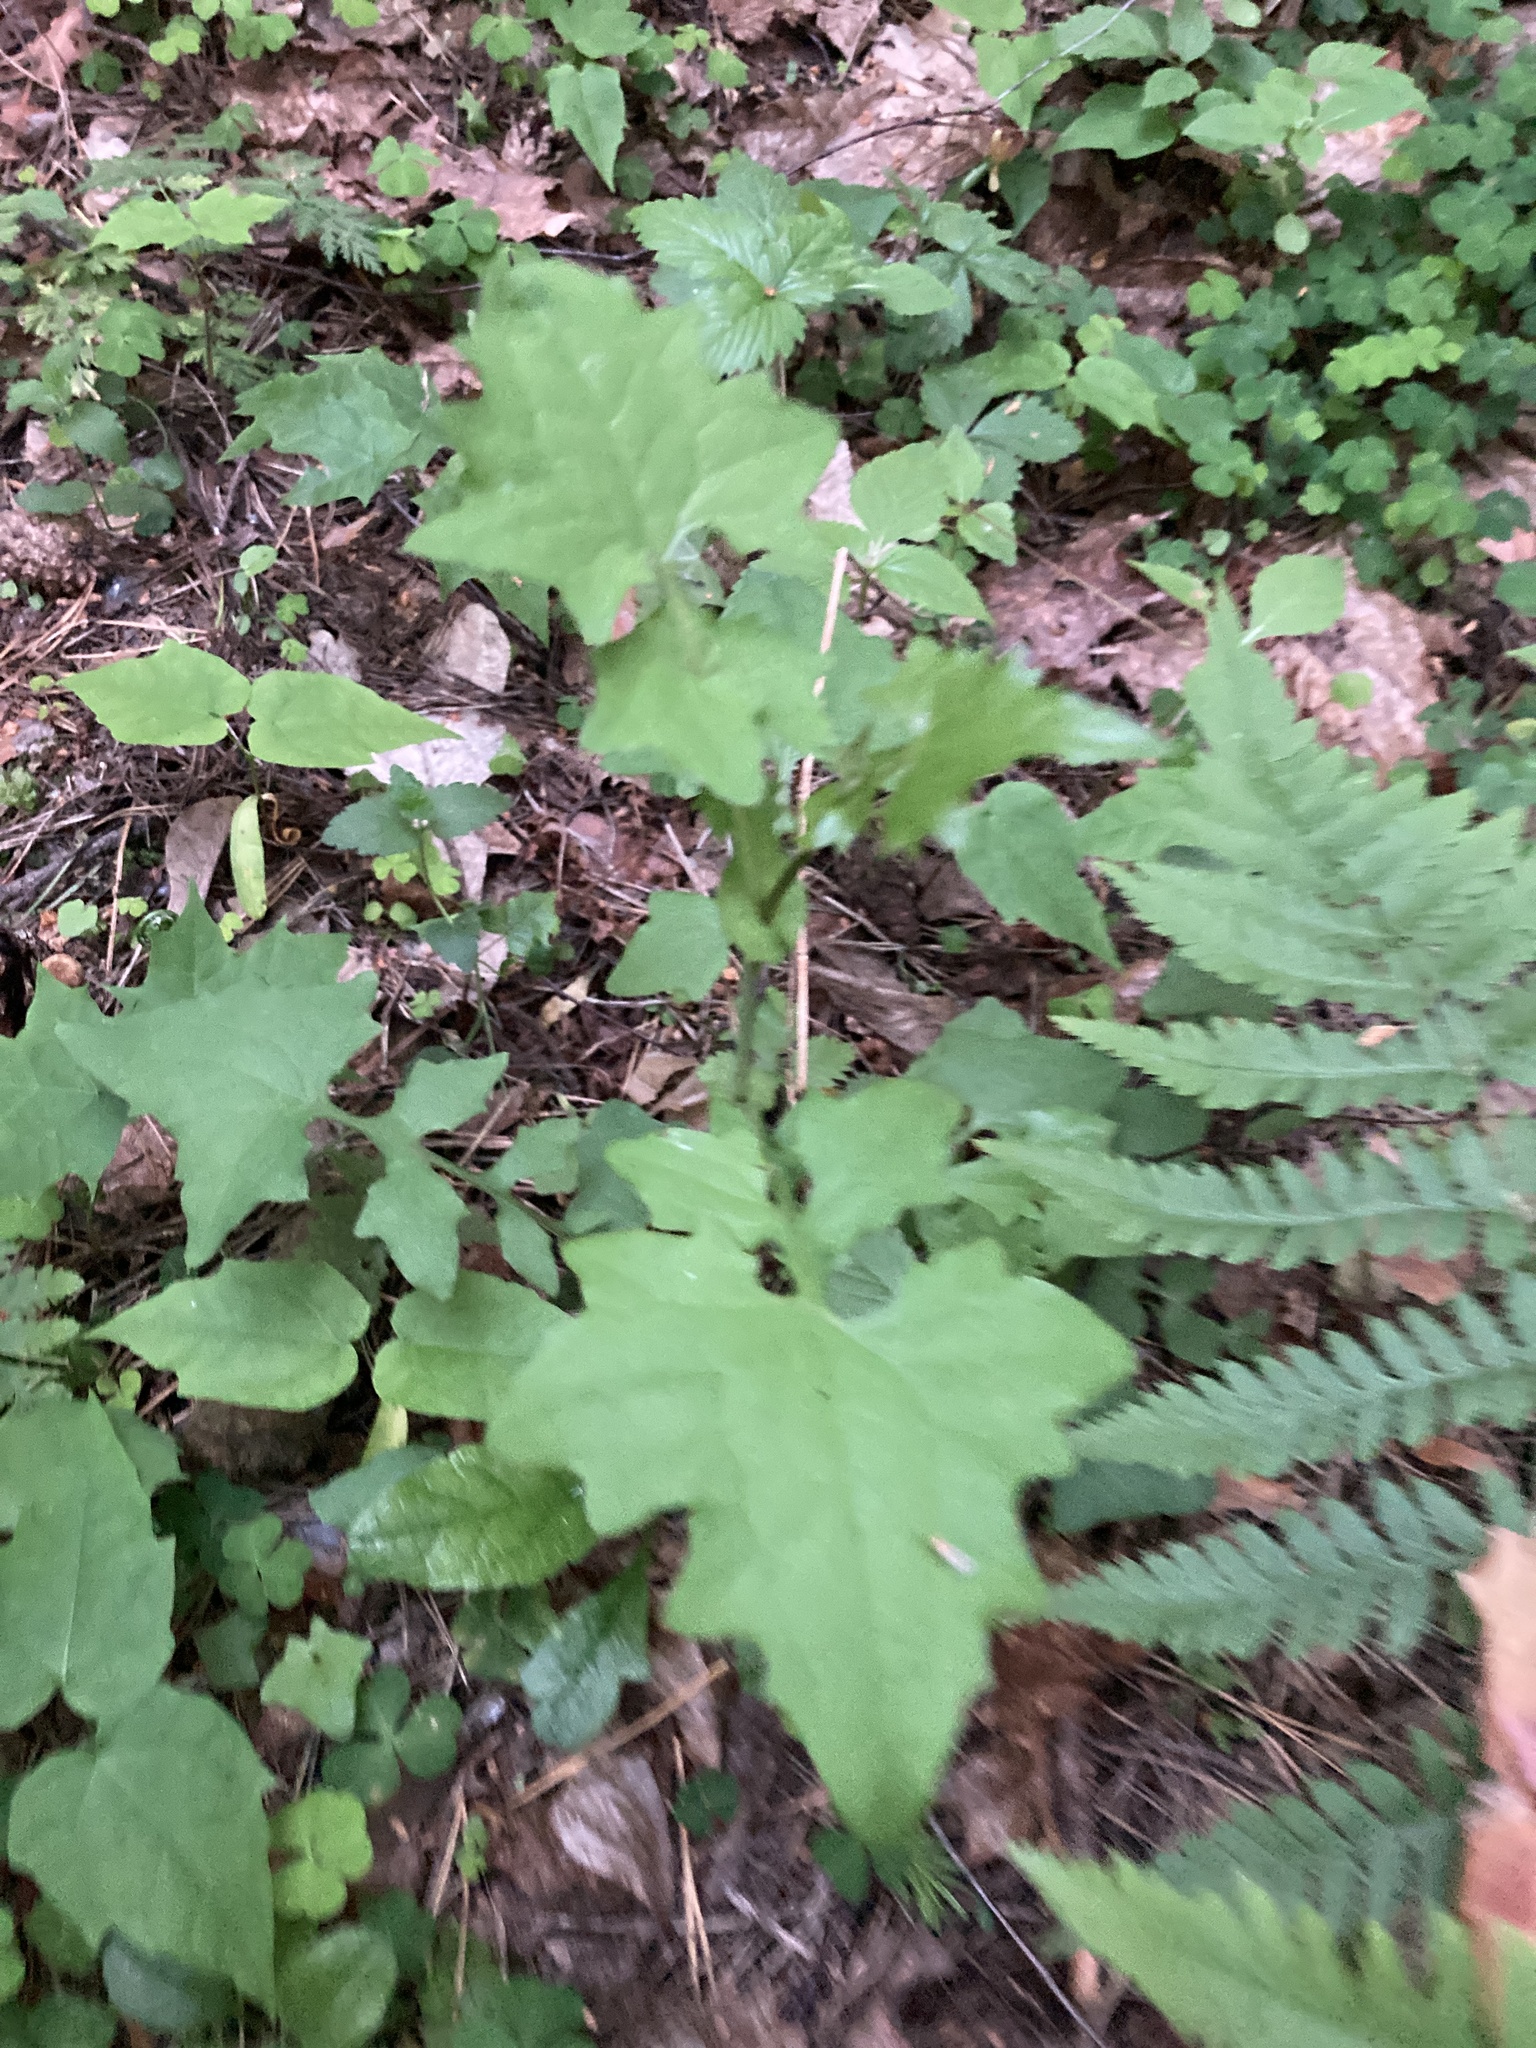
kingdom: Plantae
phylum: Tracheophyta
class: Magnoliopsida
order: Asterales
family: Asteraceae
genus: Mycelis
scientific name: Mycelis muralis
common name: Wall lettuce
